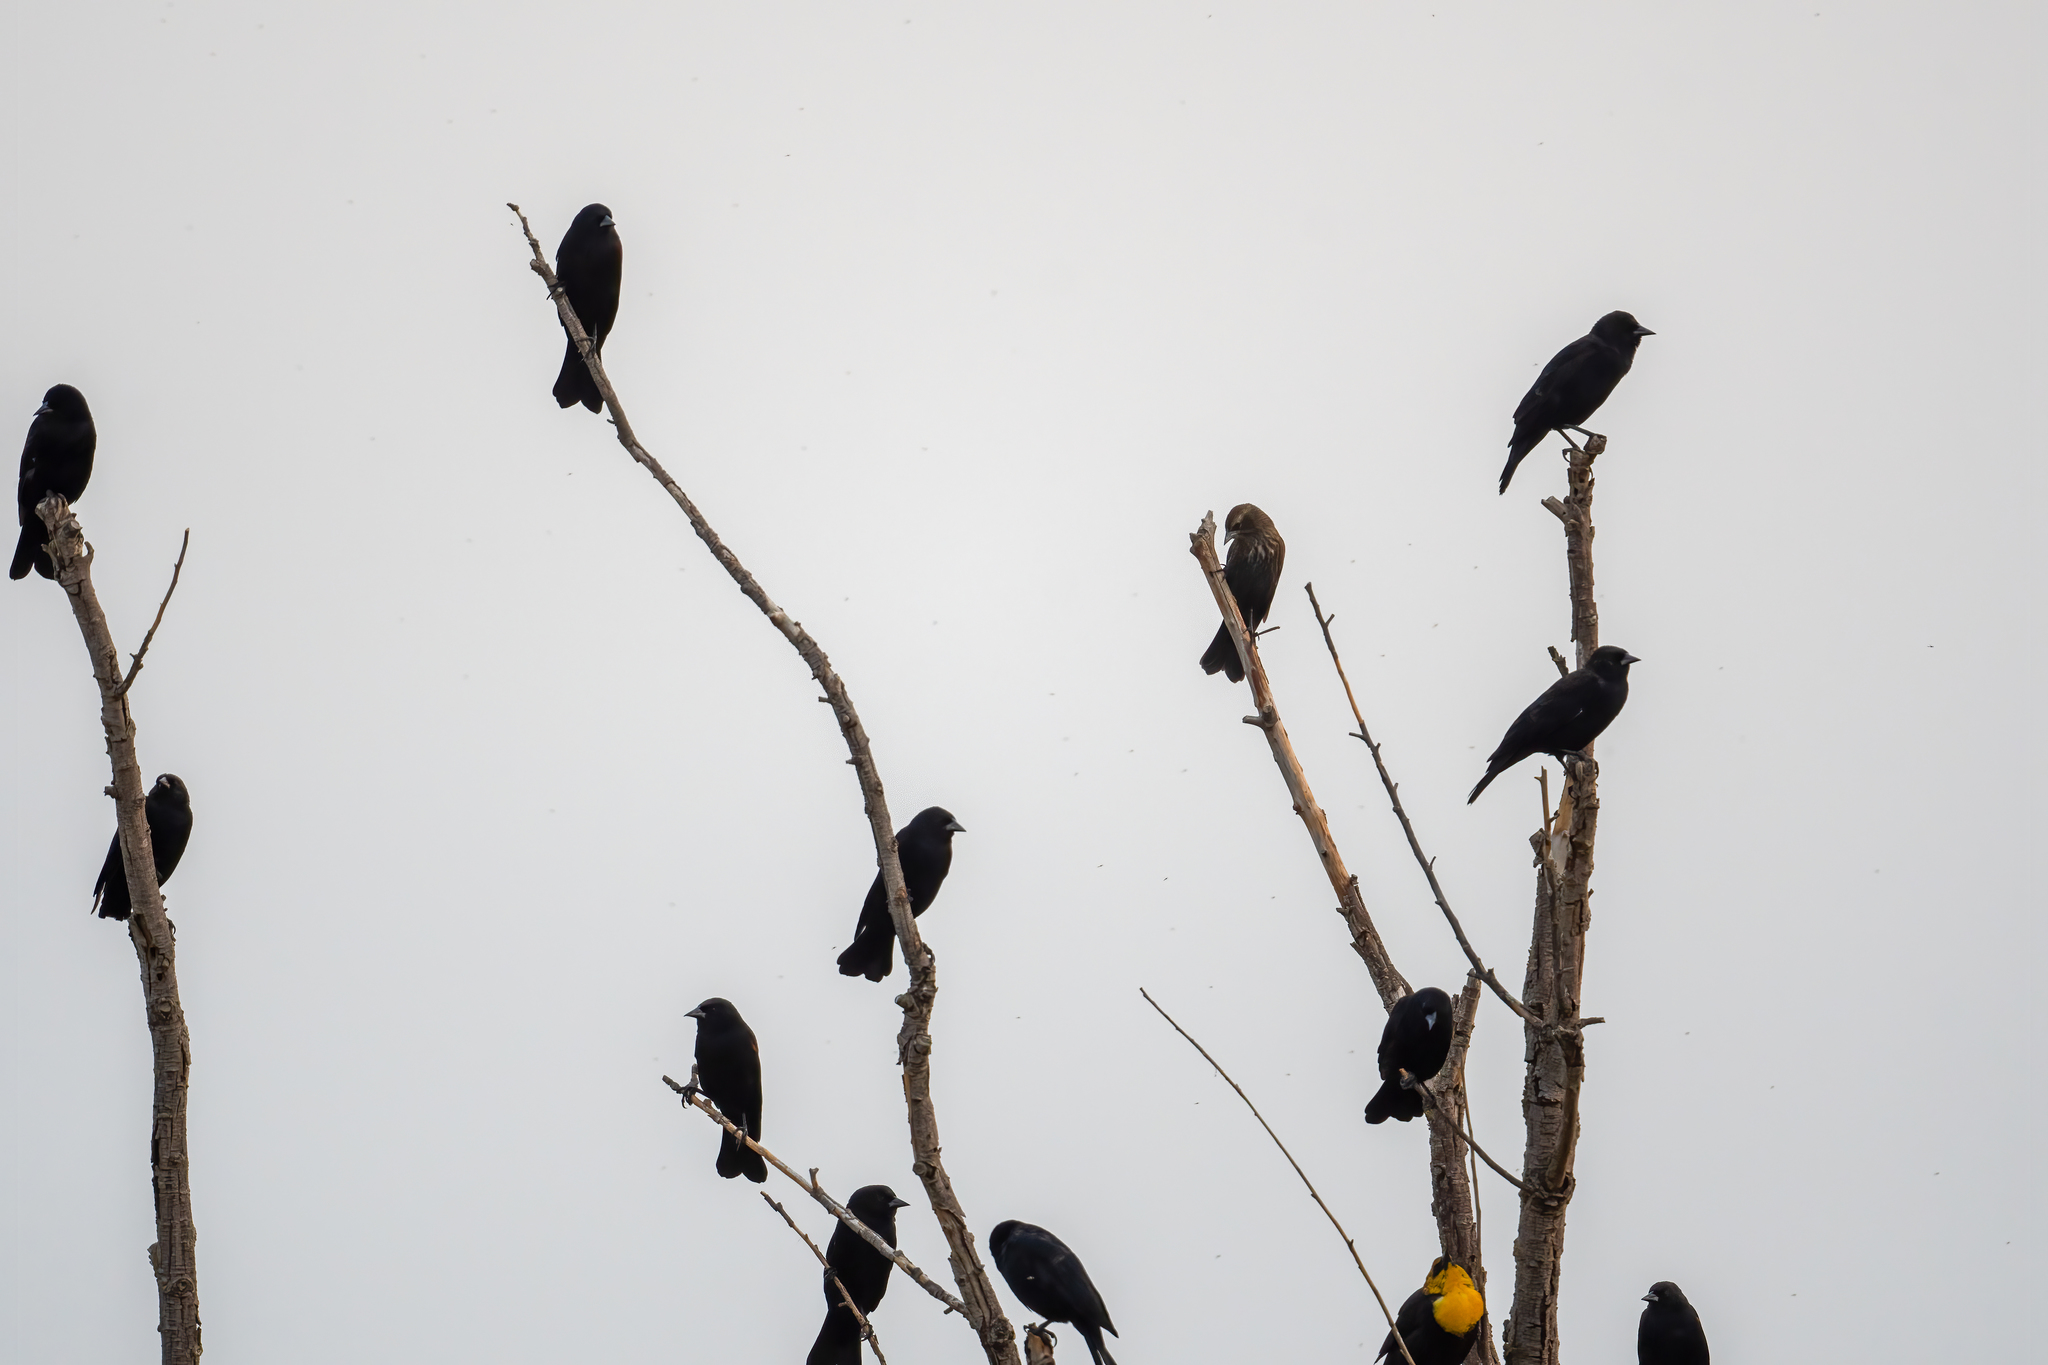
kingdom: Animalia
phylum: Chordata
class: Aves
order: Passeriformes
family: Icteridae
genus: Agelaius
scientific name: Agelaius phoeniceus
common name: Red-winged blackbird
